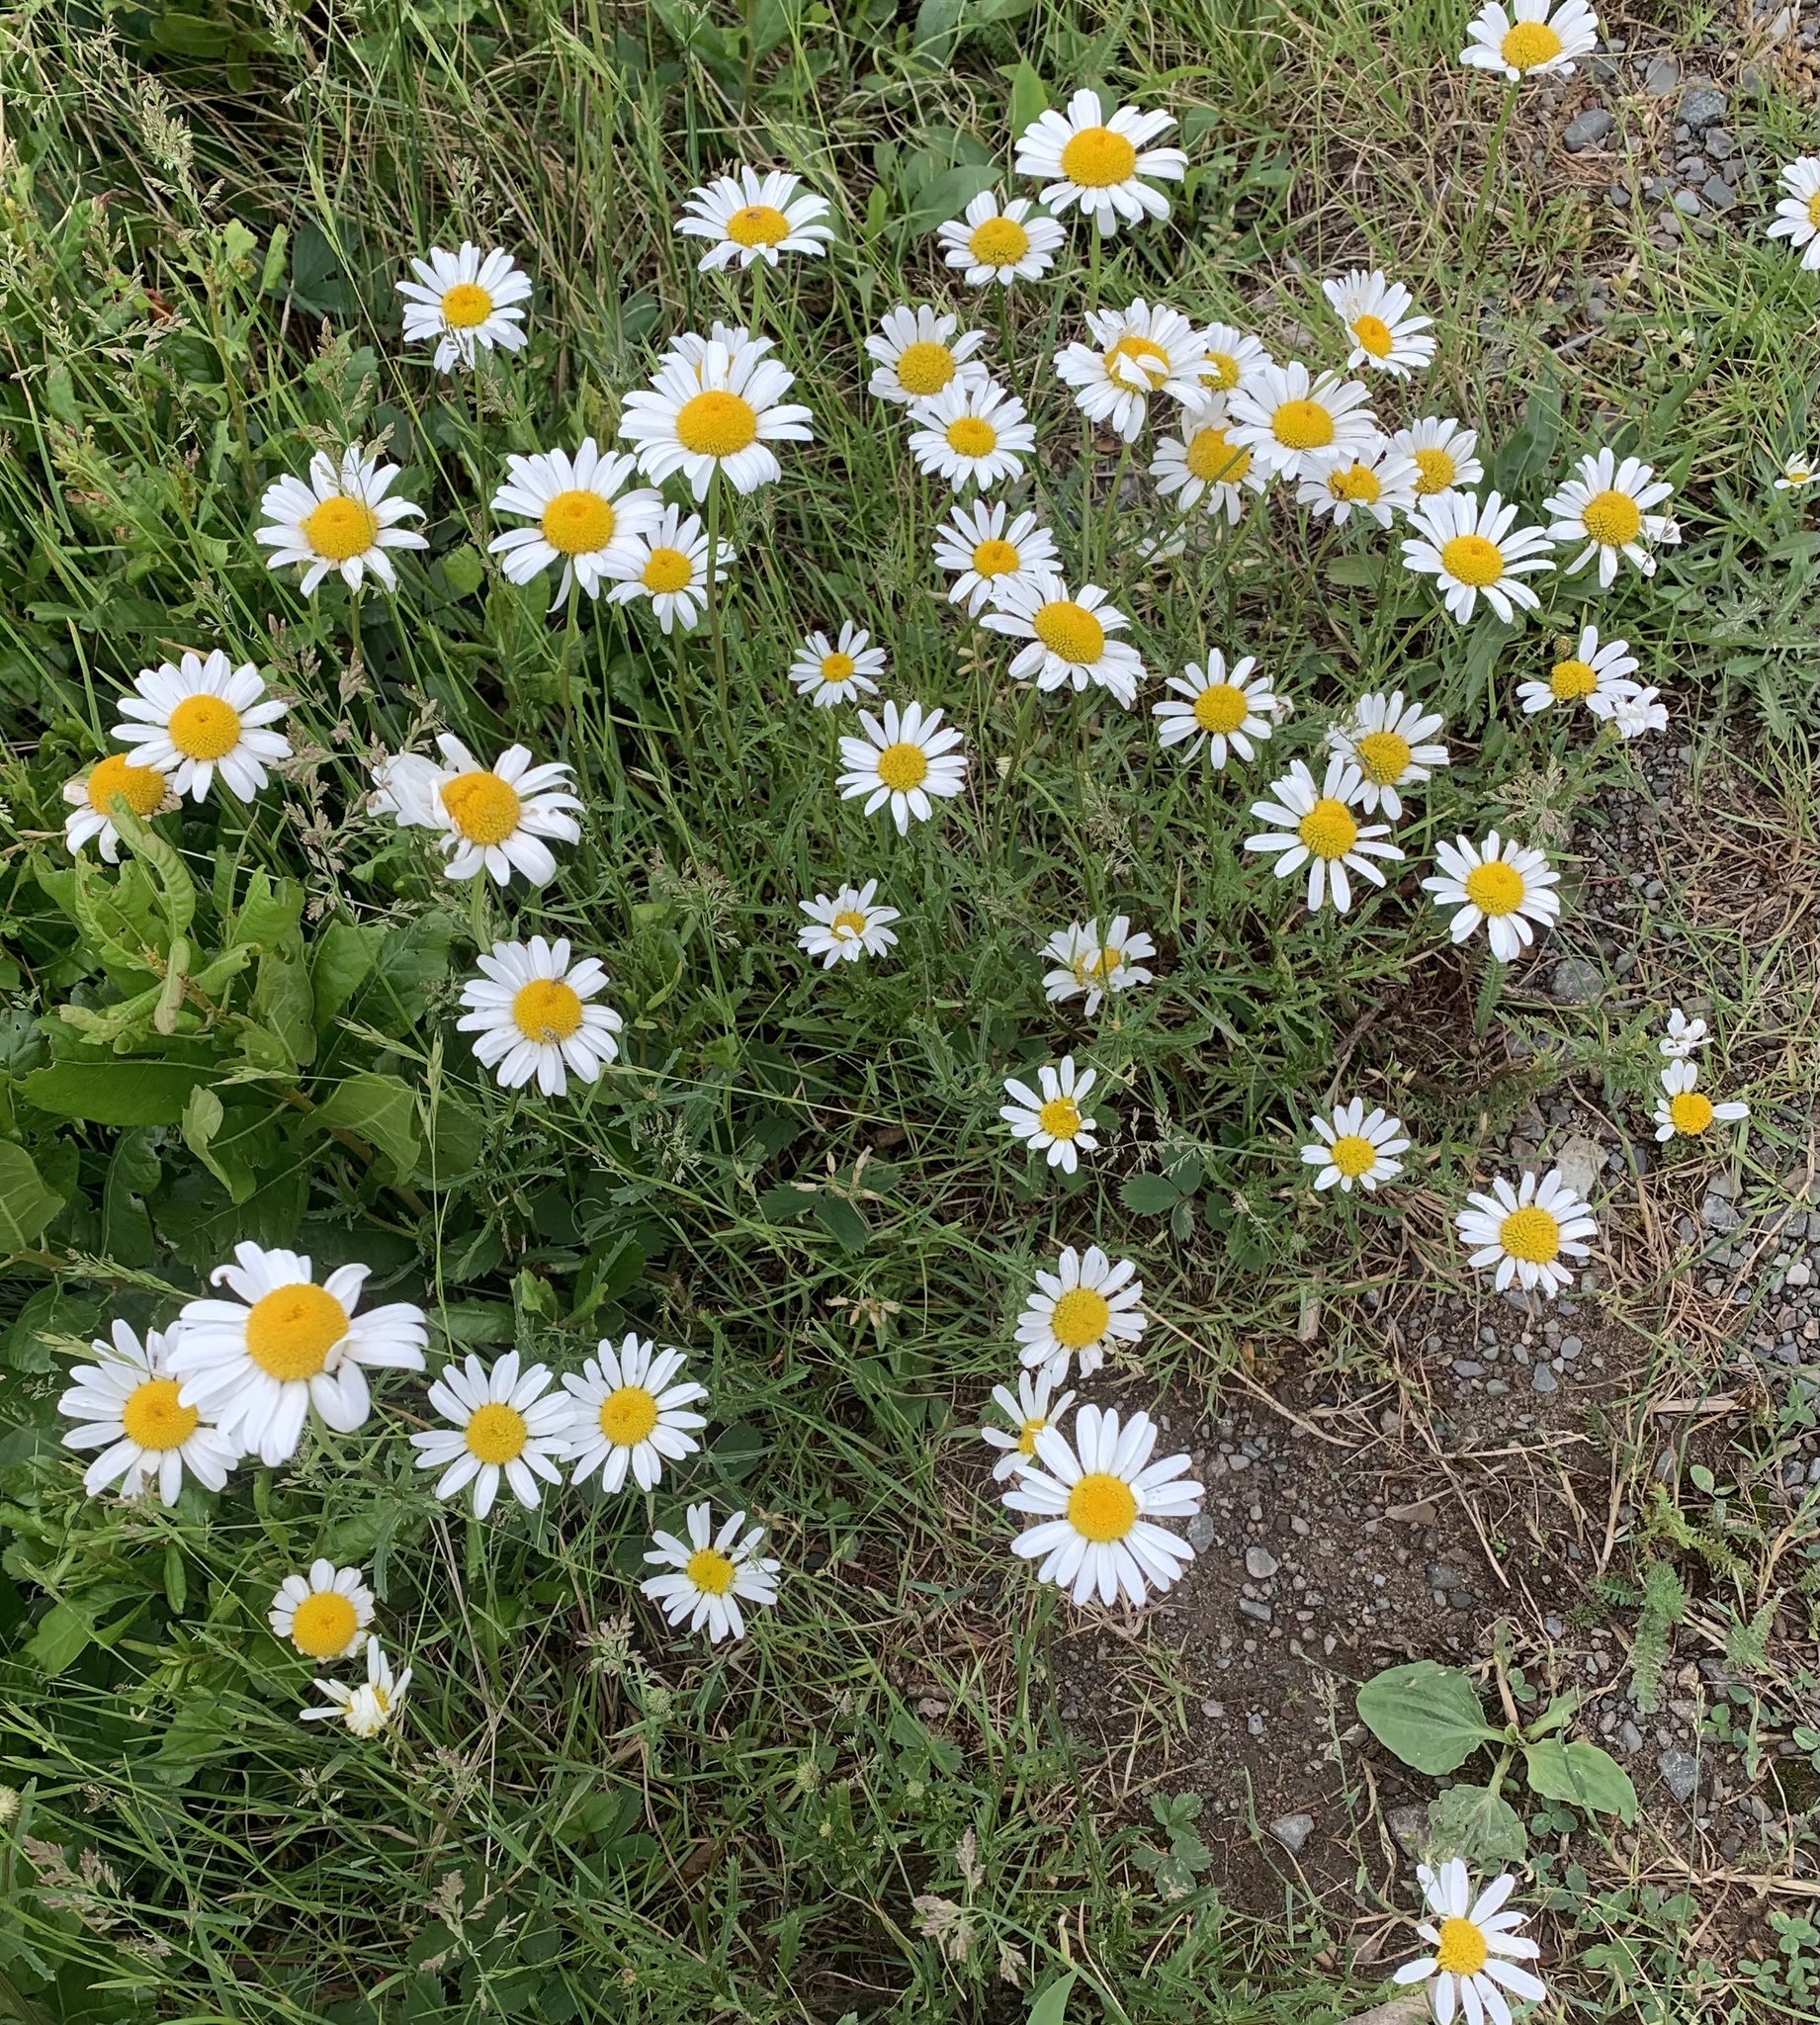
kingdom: Plantae
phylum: Tracheophyta
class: Magnoliopsida
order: Asterales
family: Asteraceae
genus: Leucanthemum
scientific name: Leucanthemum vulgare
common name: Oxeye daisy
